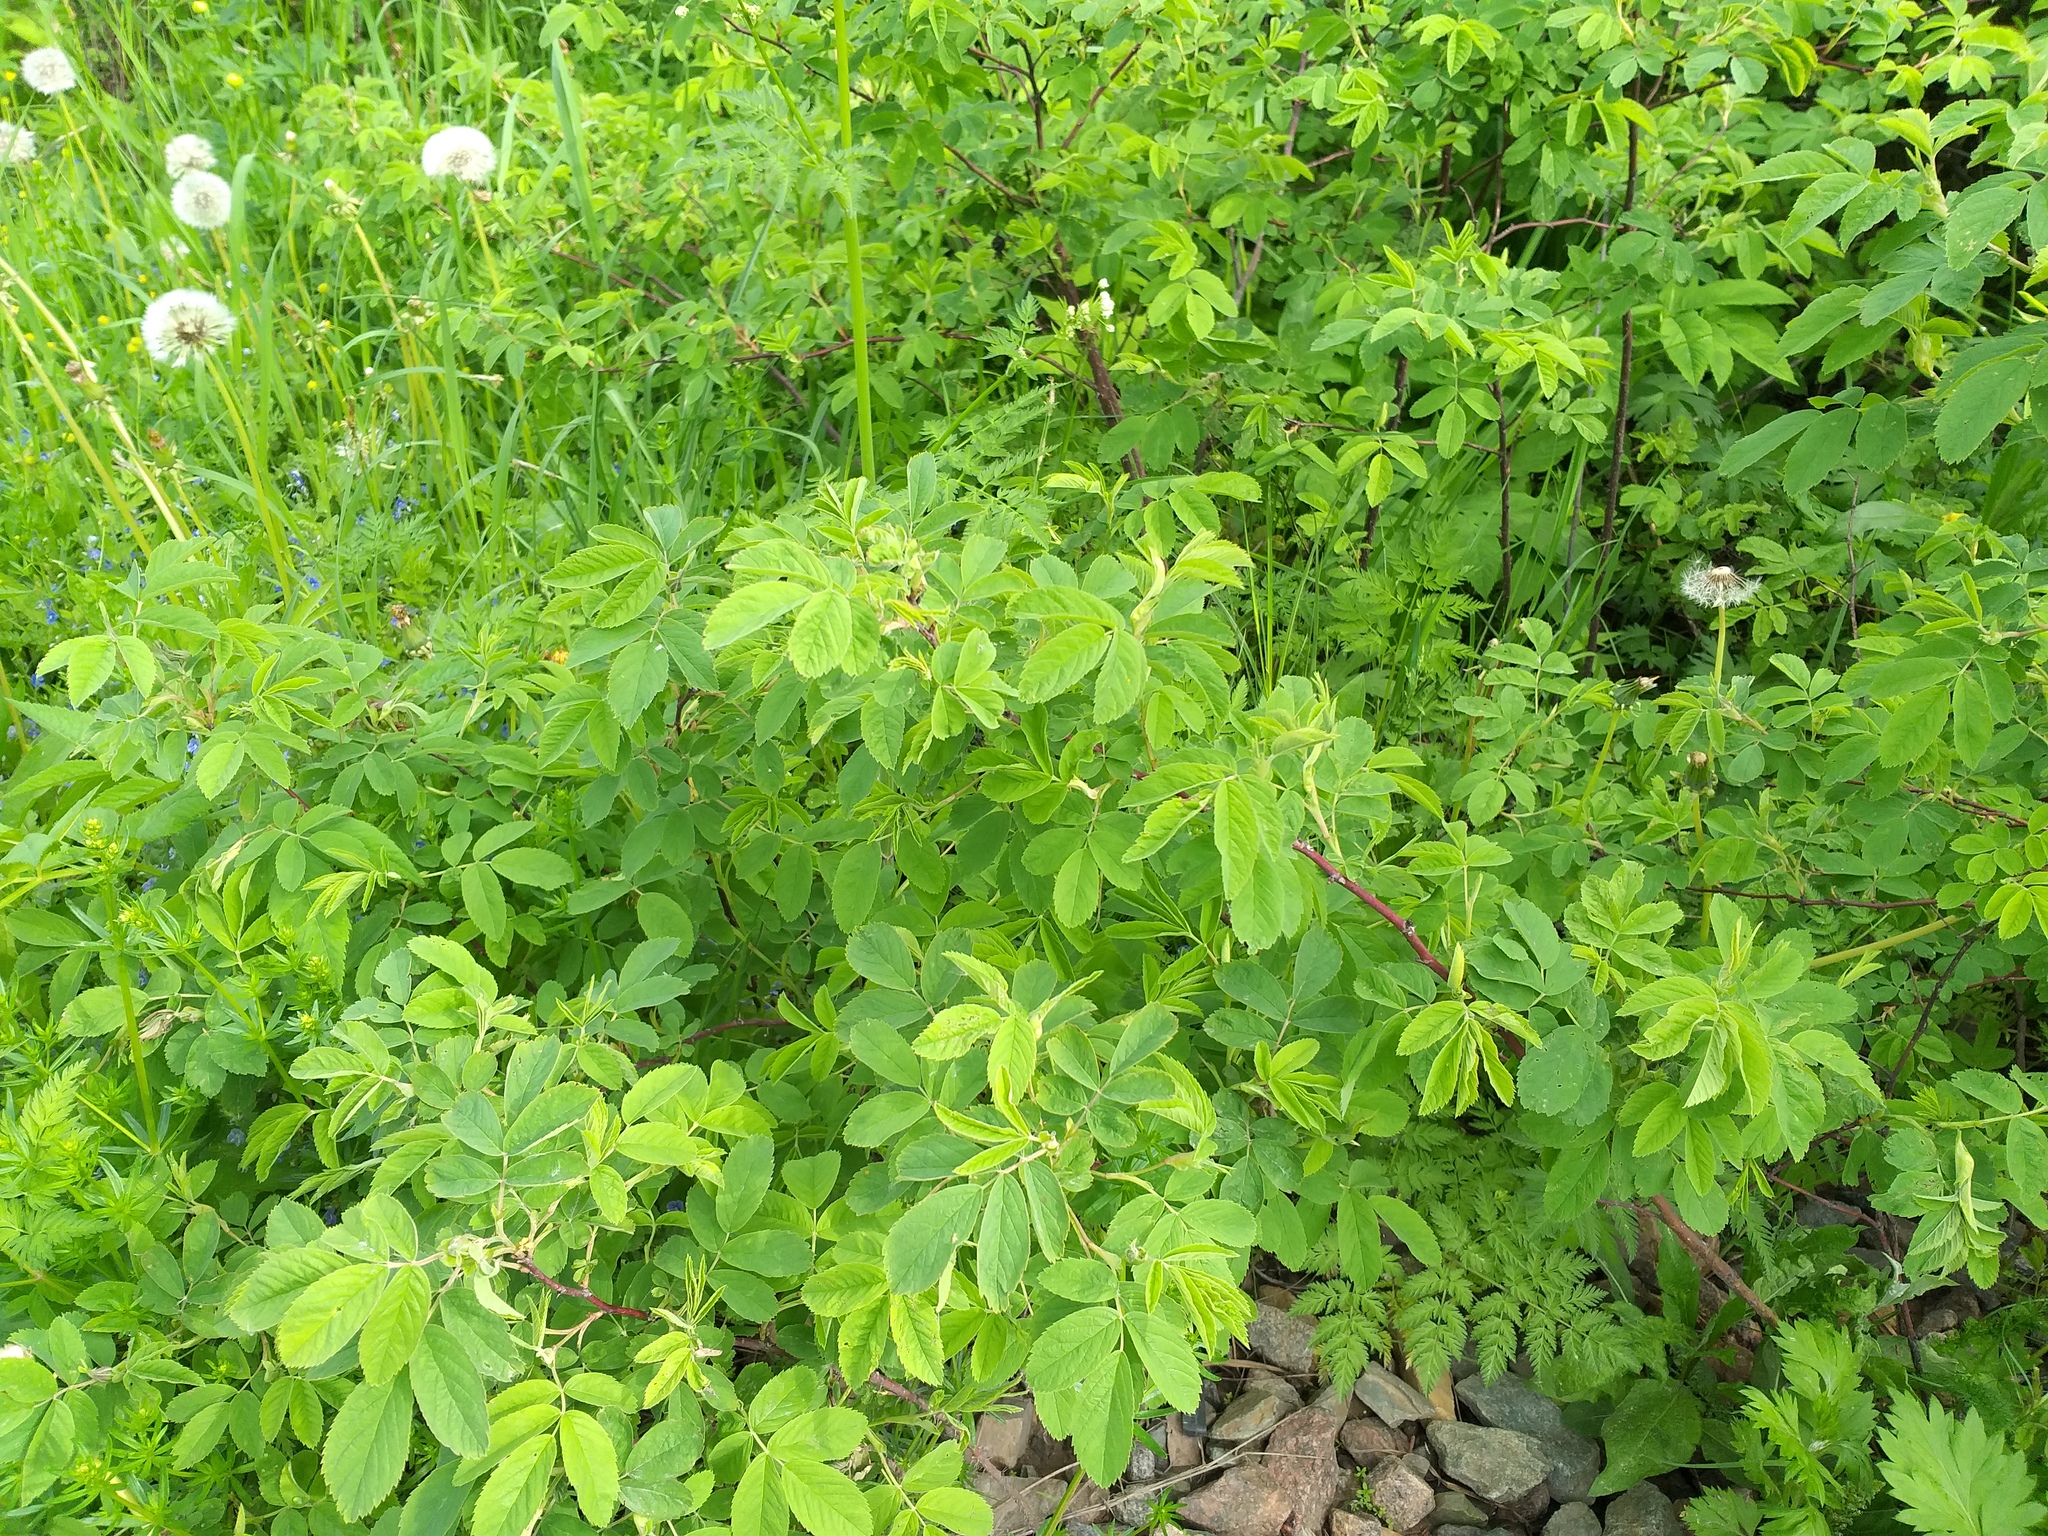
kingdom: Plantae
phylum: Tracheophyta
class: Magnoliopsida
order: Rosales
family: Rosaceae
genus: Rosa
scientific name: Rosa majalis
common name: Cinnamon rose
